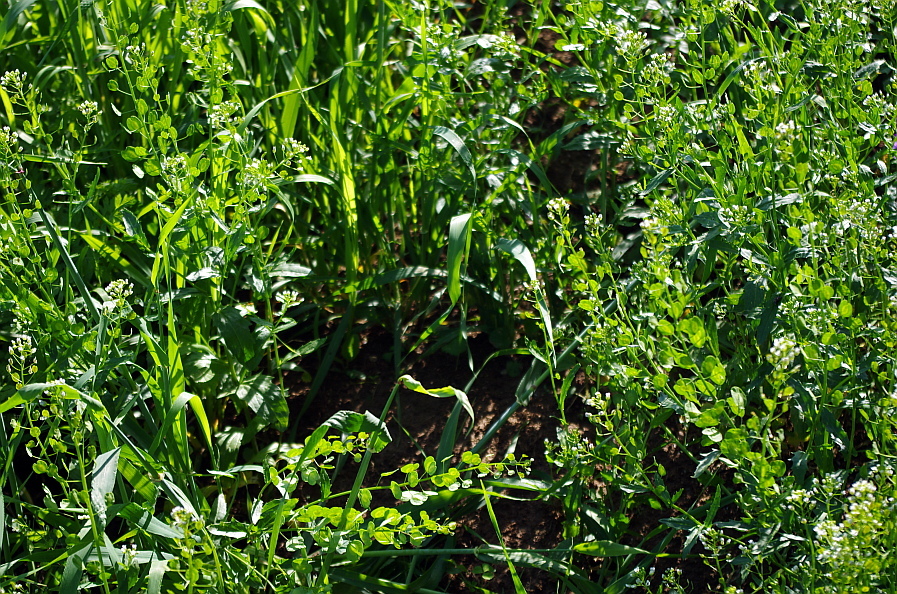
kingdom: Plantae
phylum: Tracheophyta
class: Magnoliopsida
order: Brassicales
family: Brassicaceae
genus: Thlaspi
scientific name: Thlaspi arvense
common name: Field pennycress
